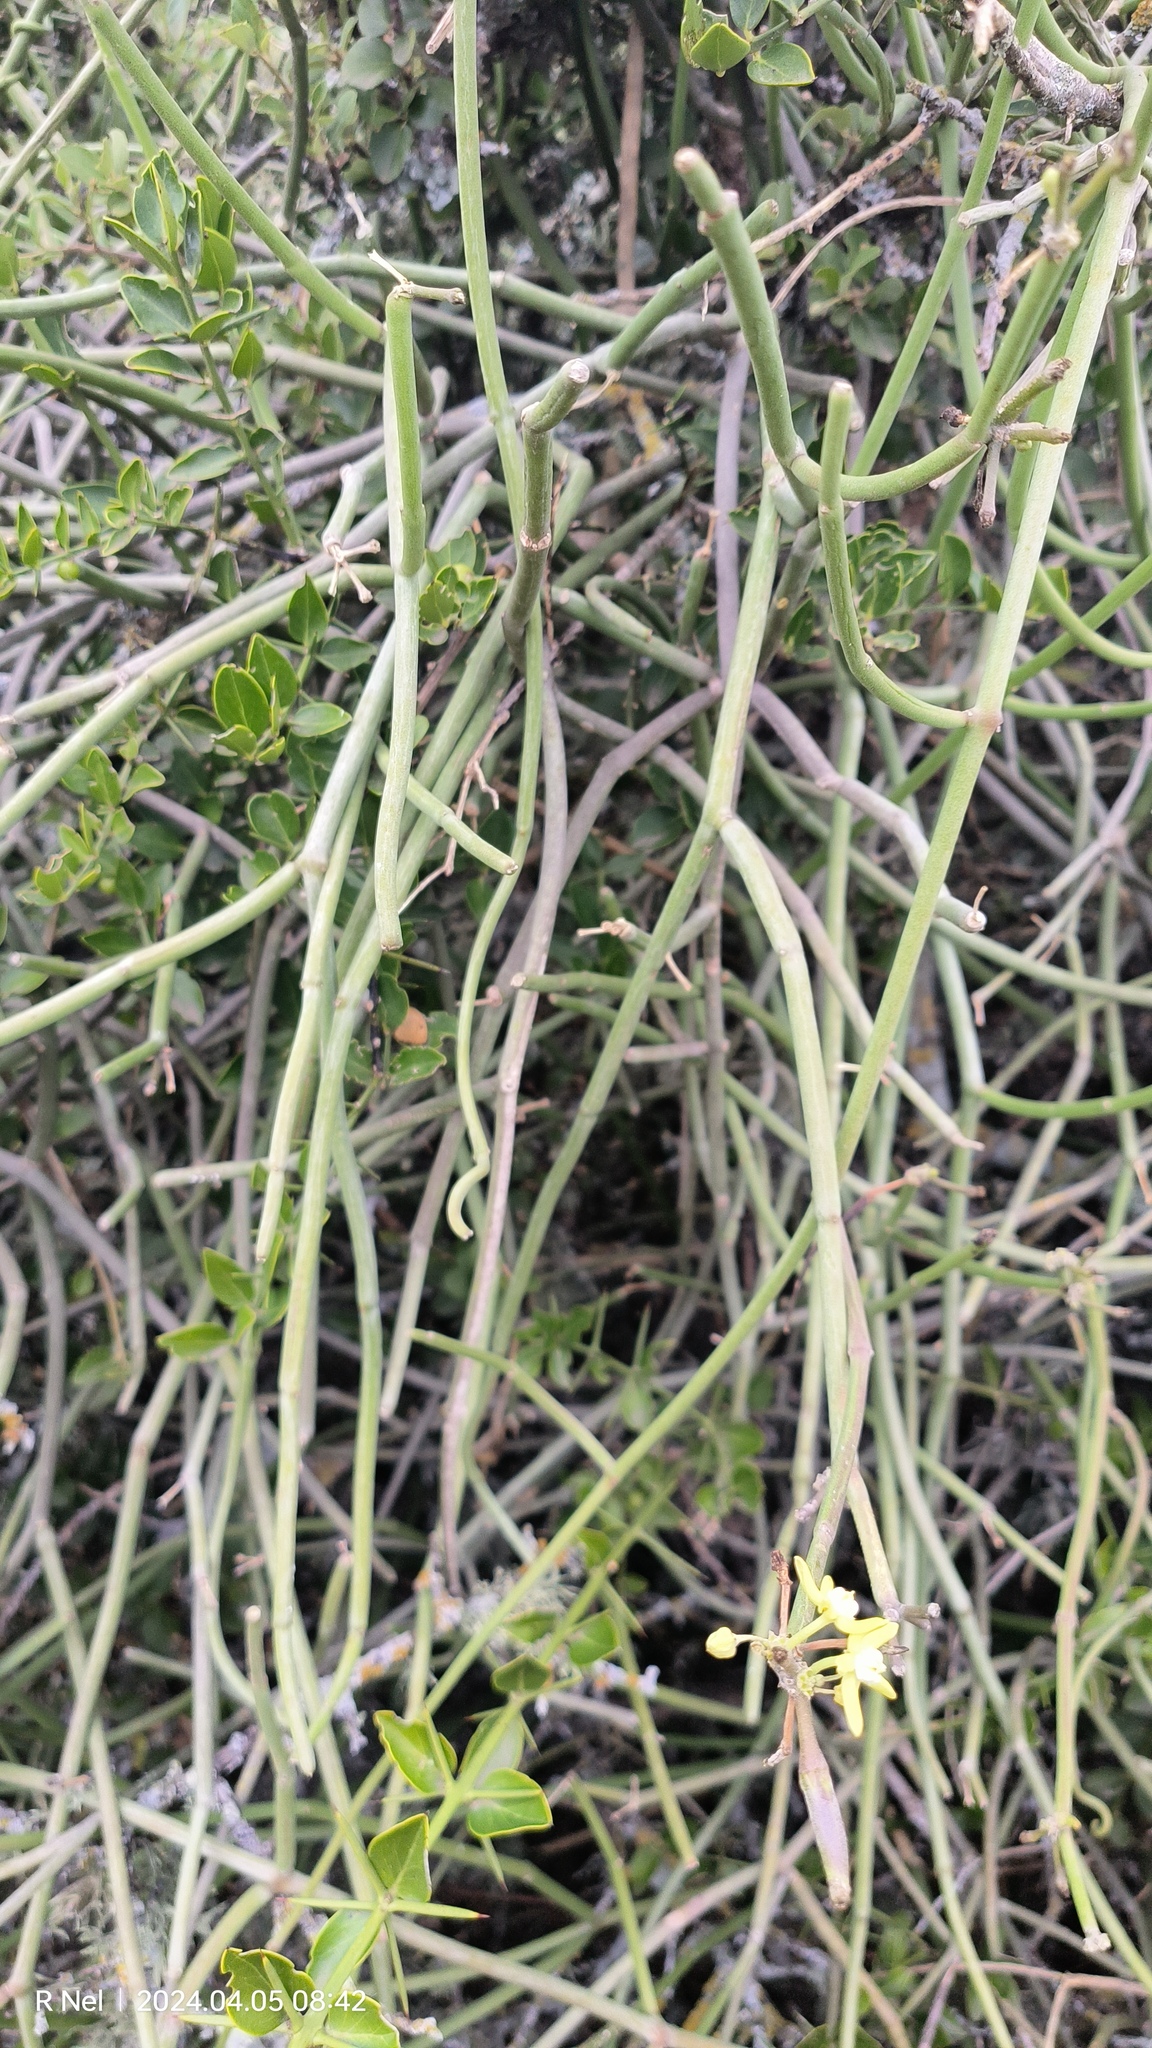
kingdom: Plantae
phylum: Tracheophyta
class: Magnoliopsida
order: Gentianales
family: Apocynaceae
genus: Cynanchum
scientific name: Cynanchum viminale
